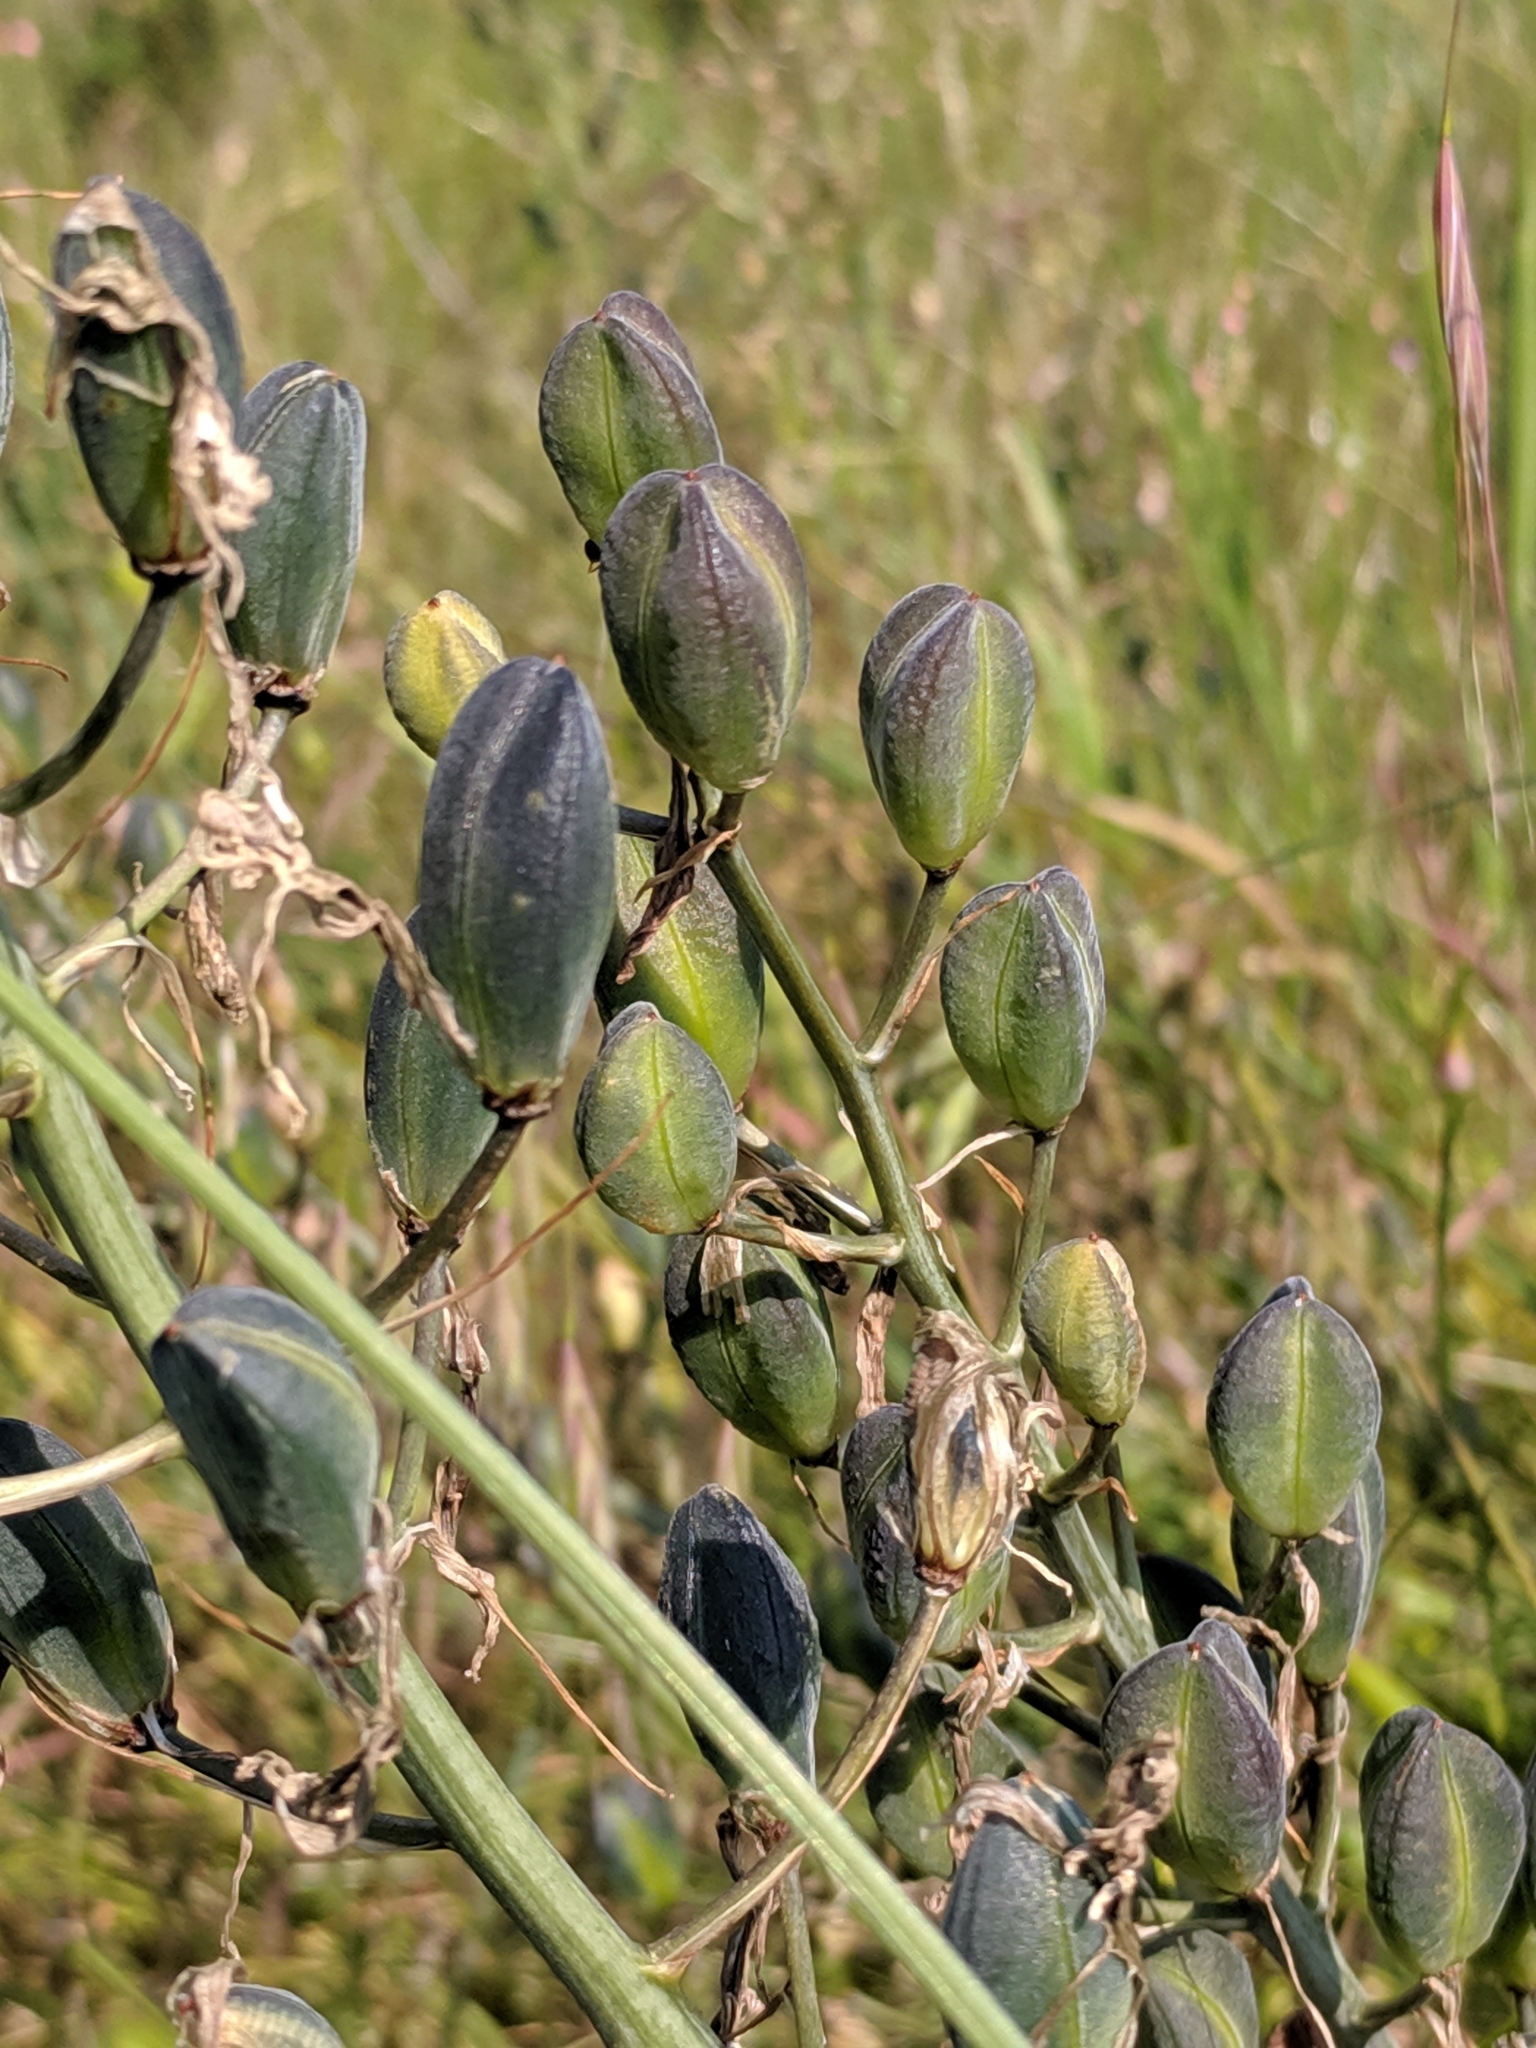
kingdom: Plantae
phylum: Tracheophyta
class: Liliopsida
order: Asparagales
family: Asparagaceae
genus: Camassia
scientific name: Camassia leichtlinii
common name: Leichtlin's camas
